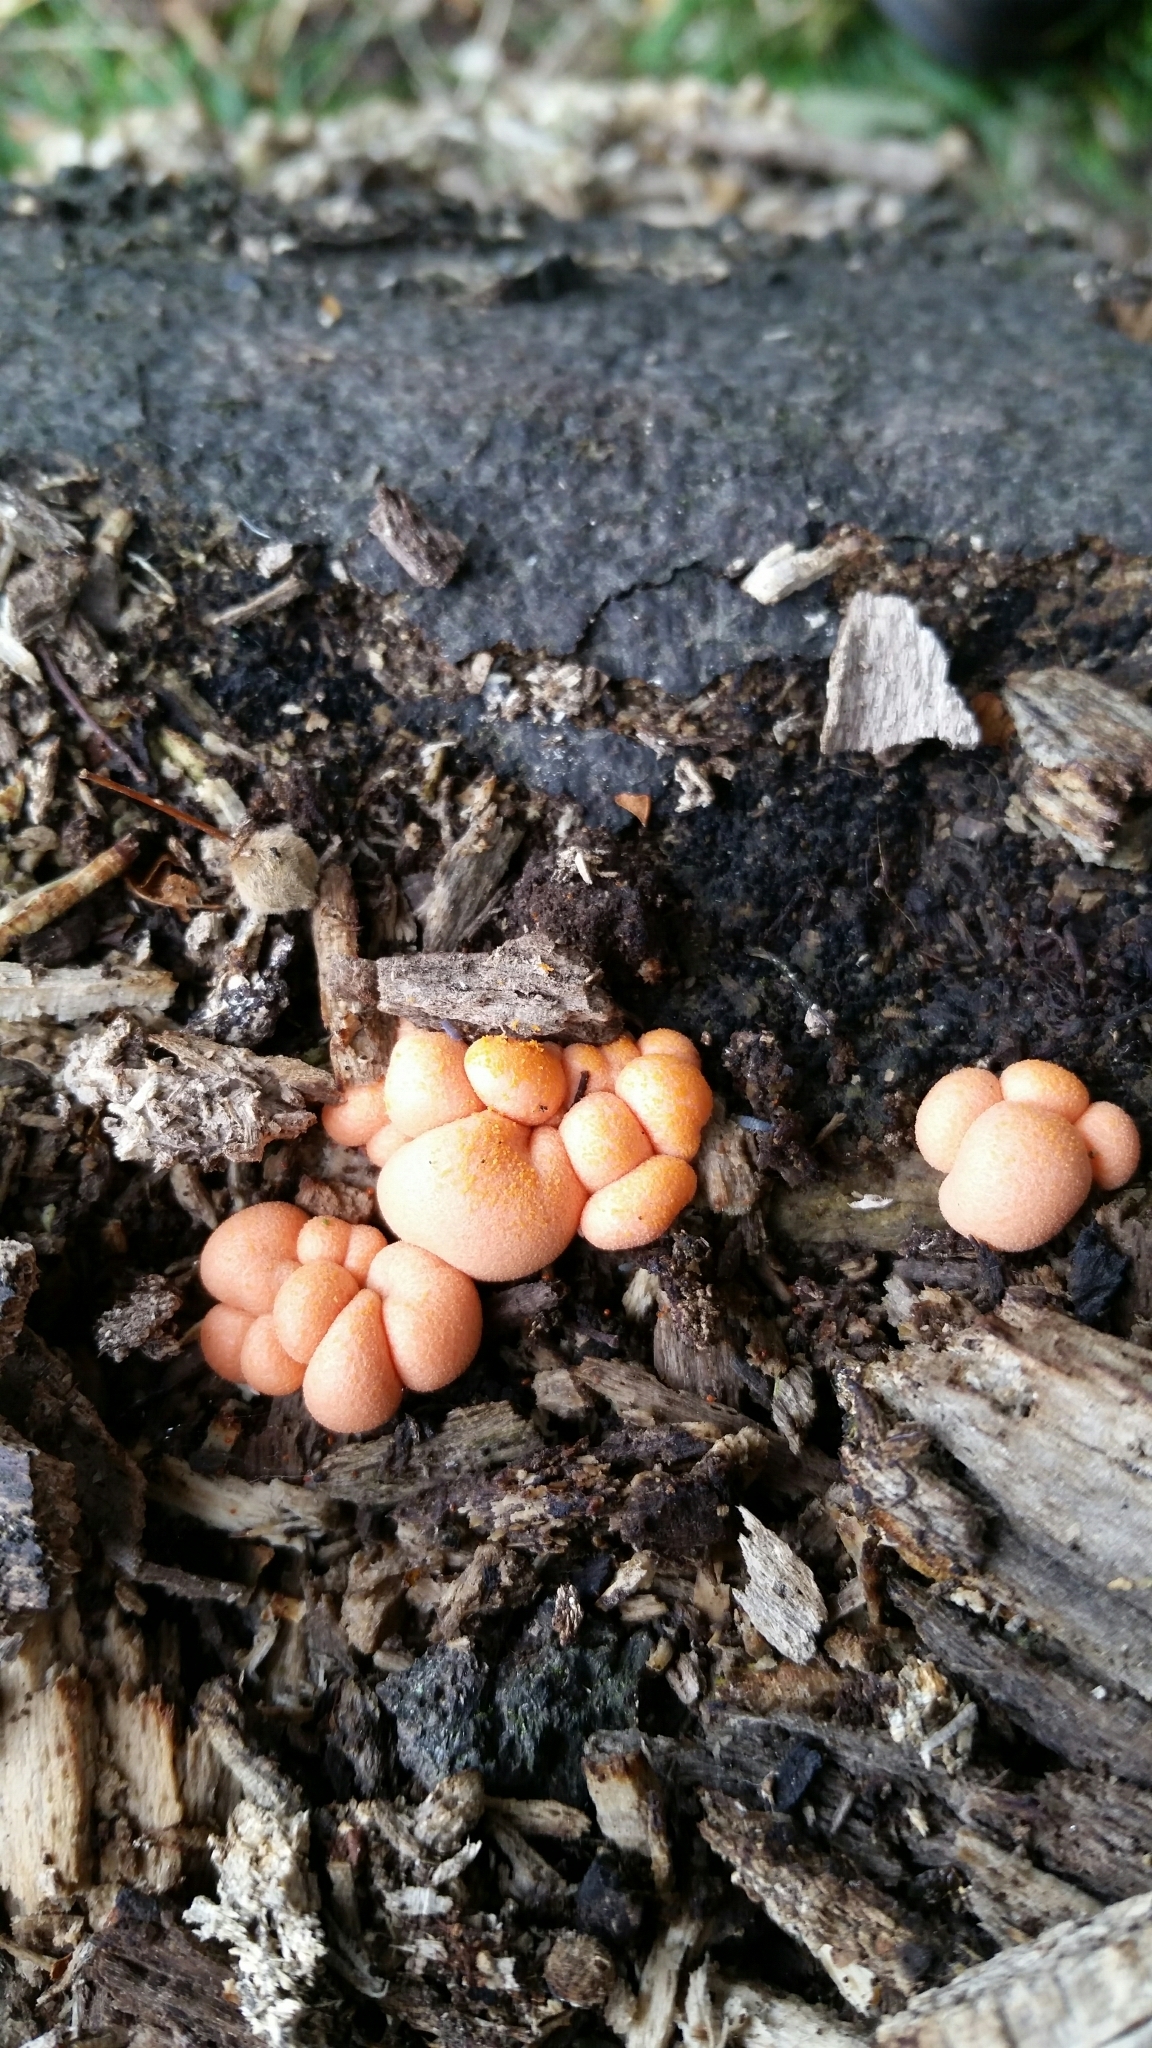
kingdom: Protozoa
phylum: Mycetozoa
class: Myxomycetes
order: Cribrariales
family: Tubiferaceae
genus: Lycogala
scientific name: Lycogala epidendrum
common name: Wolf's milk
